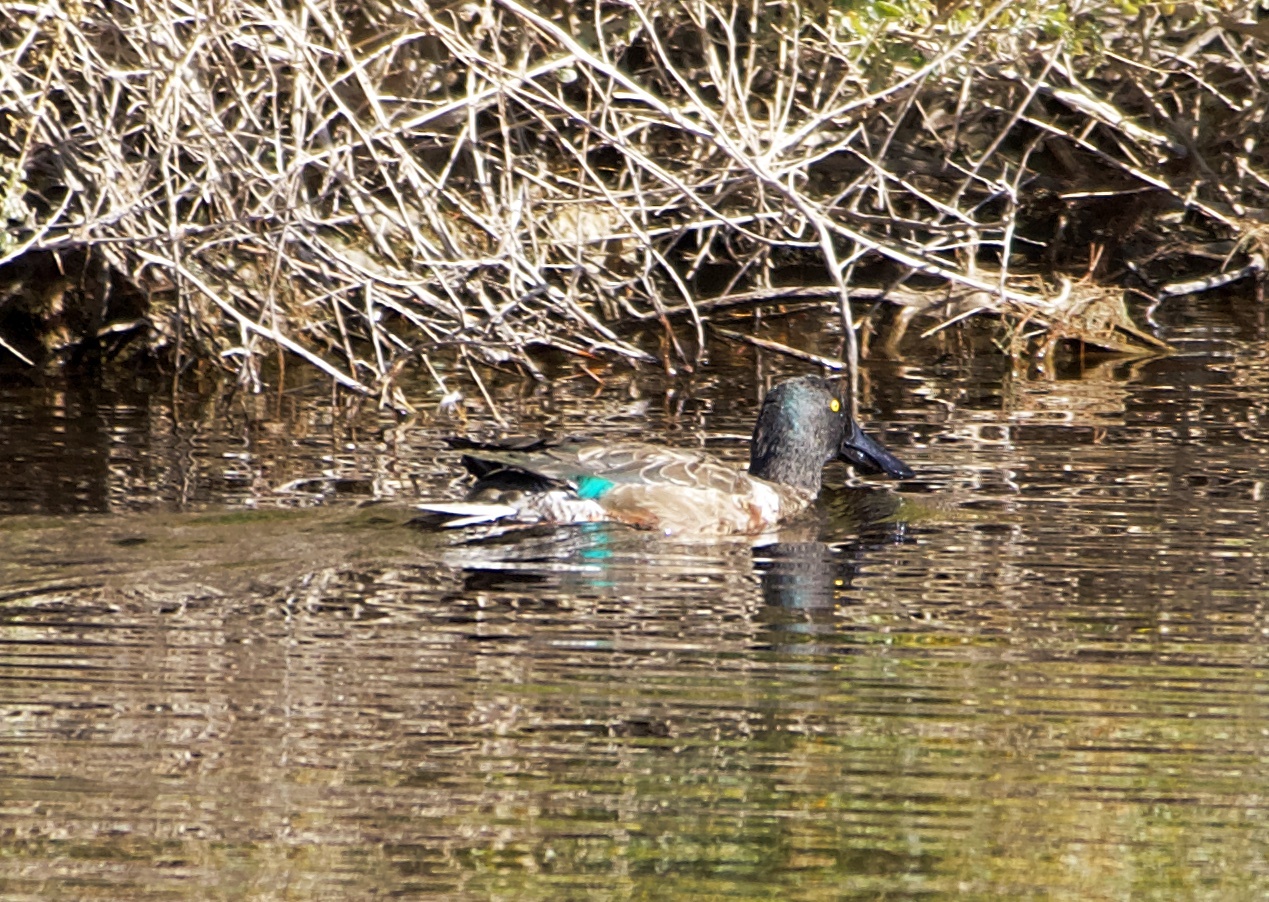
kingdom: Animalia
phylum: Chordata
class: Aves
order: Anseriformes
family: Anatidae
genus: Spatula
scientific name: Spatula clypeata
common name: Northern shoveler
